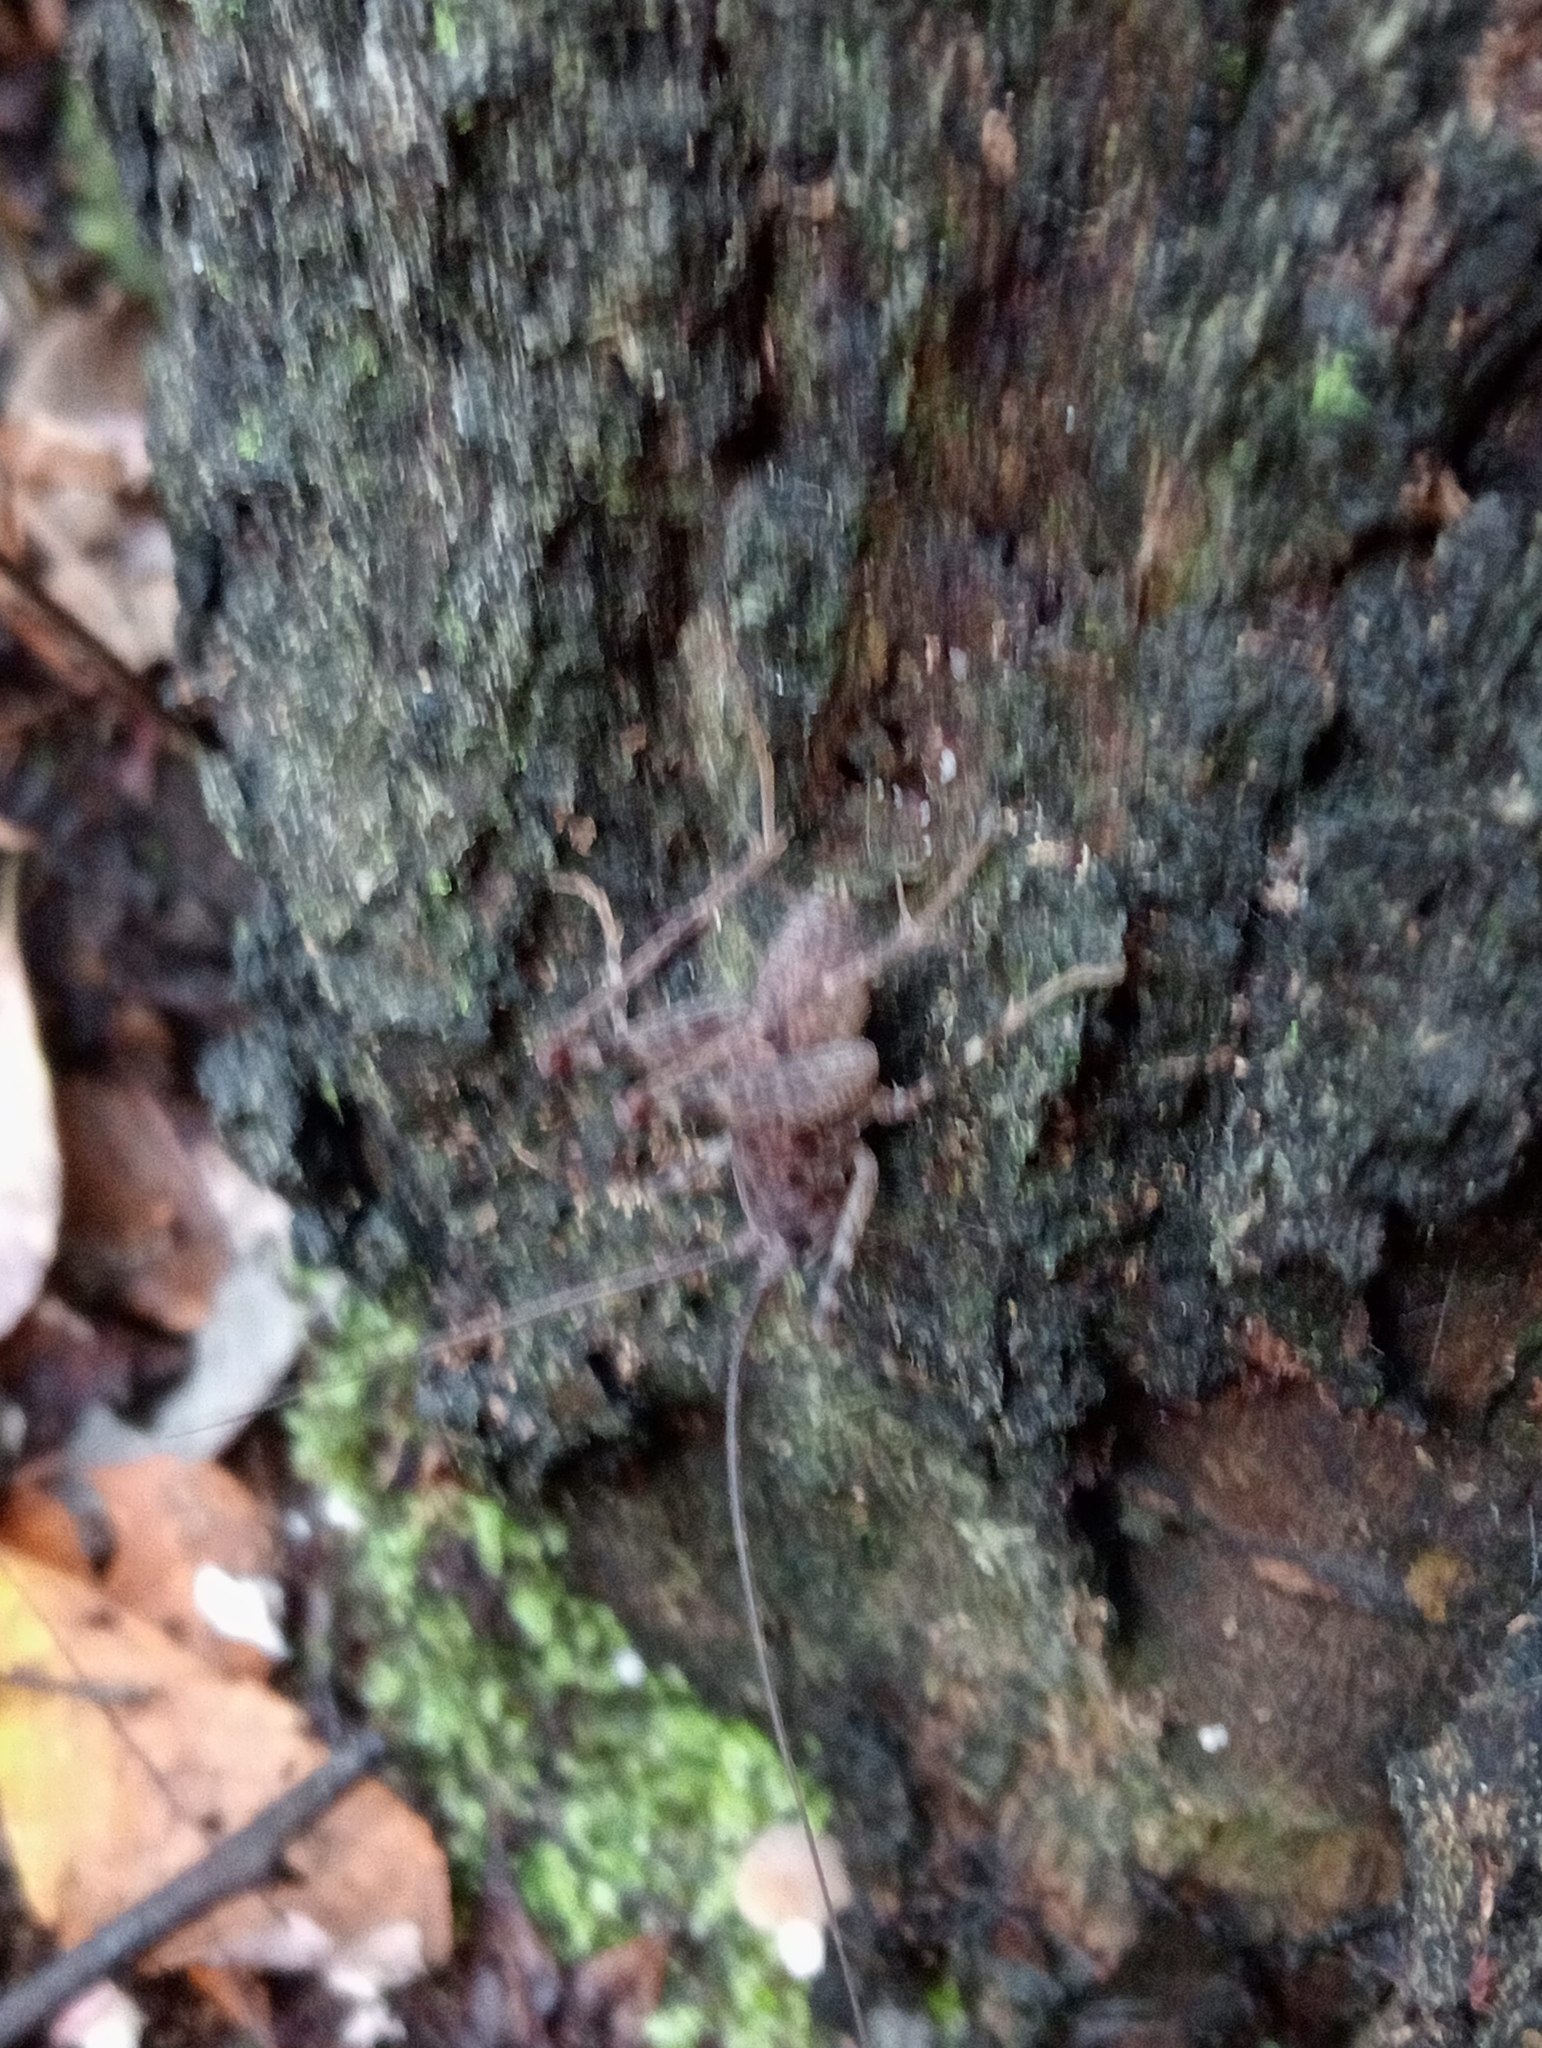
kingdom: Animalia
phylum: Arthropoda
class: Insecta
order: Orthoptera
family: Rhaphidophoridae
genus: Pleioplectron
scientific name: Pleioplectron simplex
